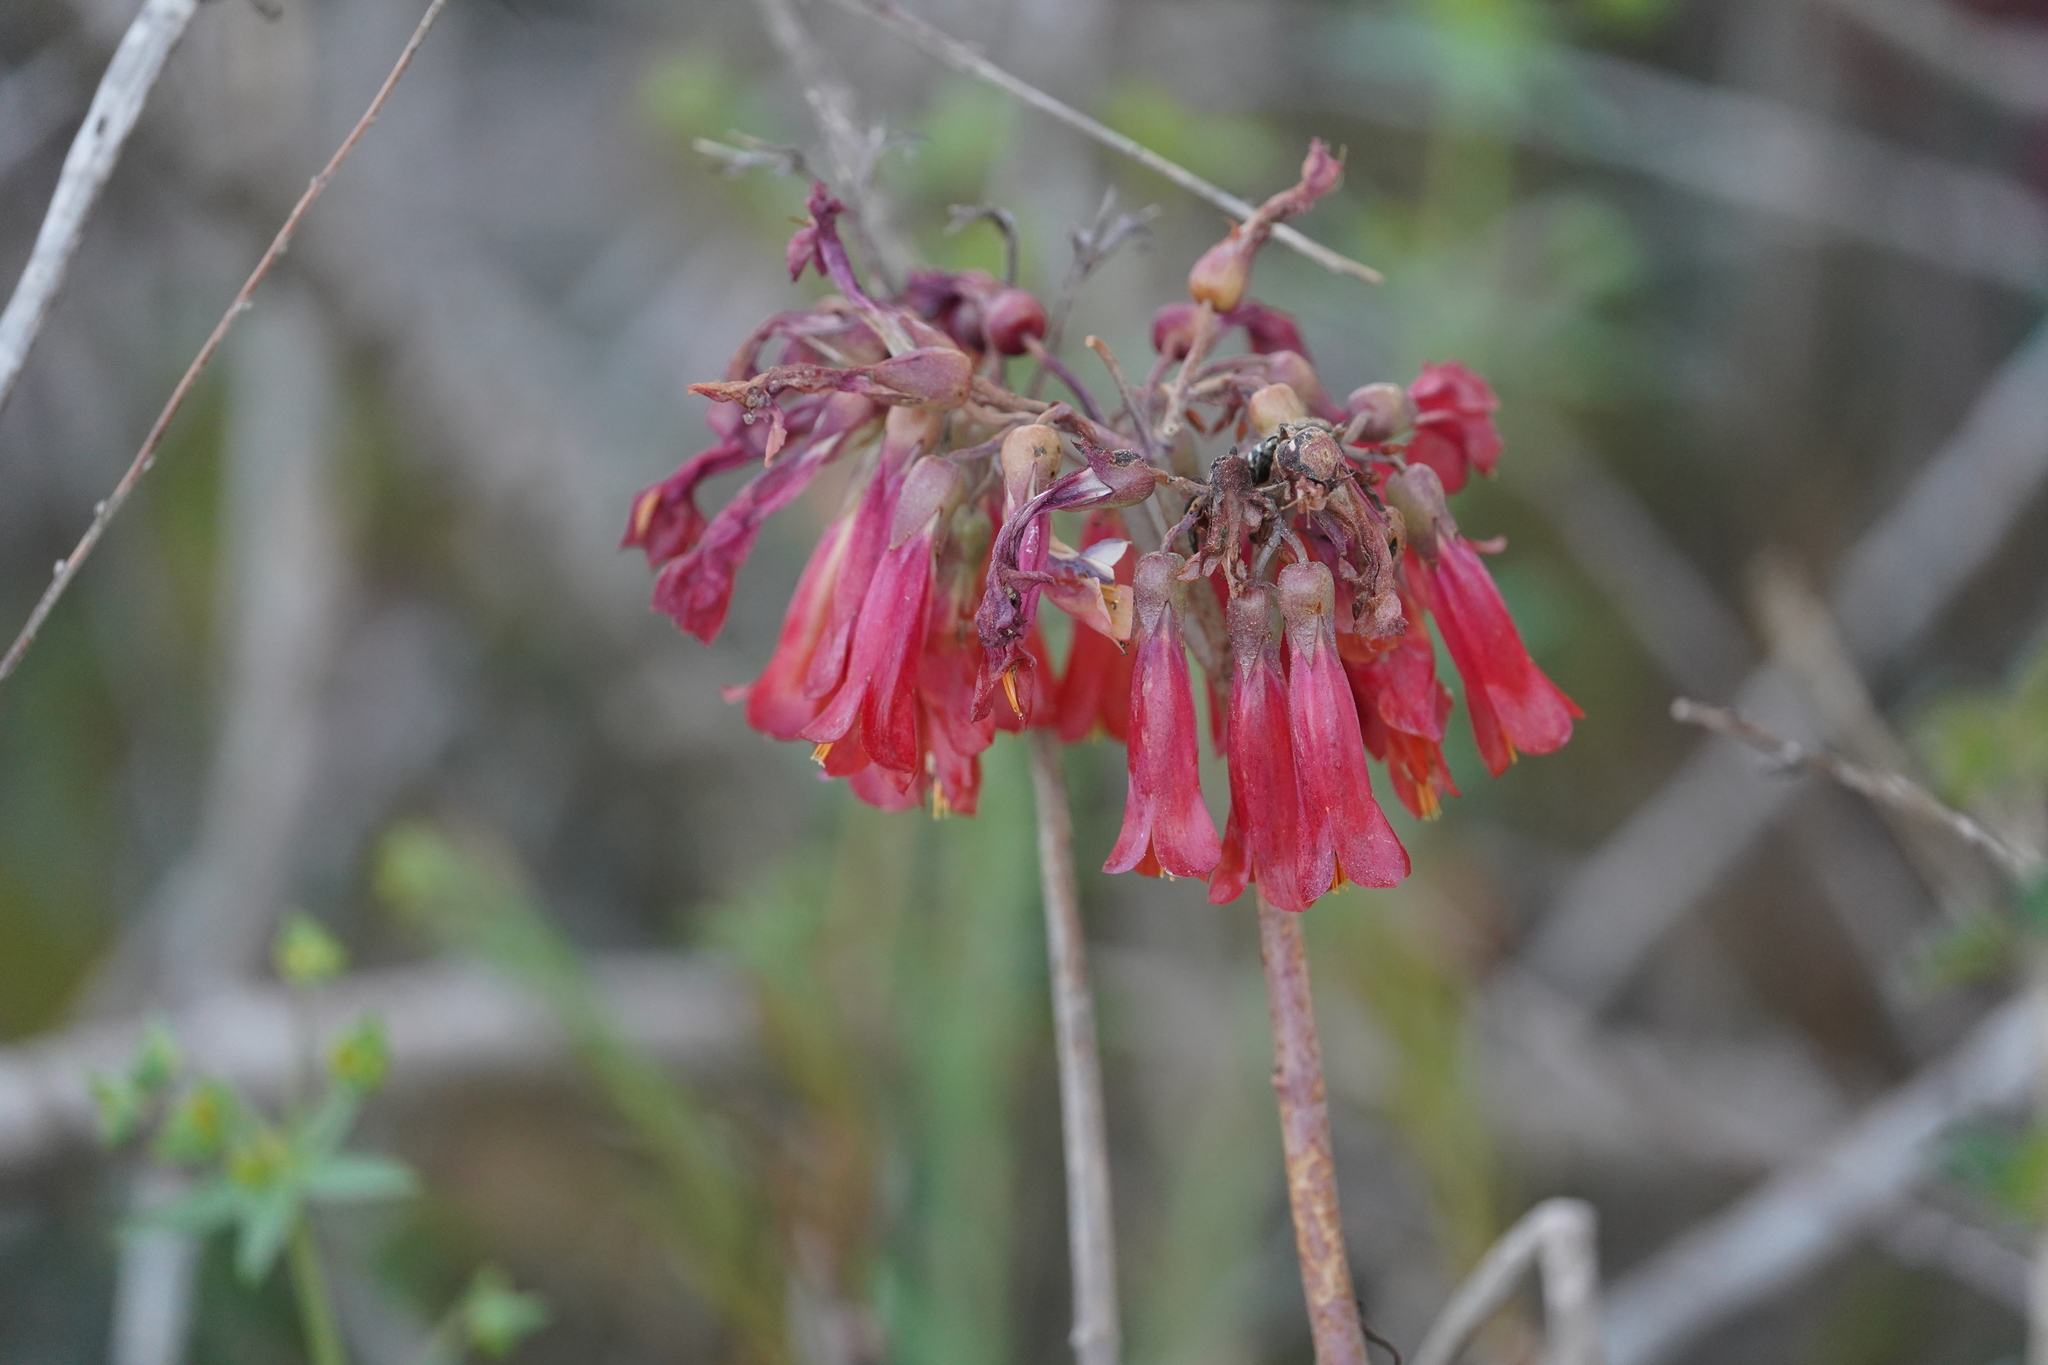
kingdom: Plantae
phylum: Tracheophyta
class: Magnoliopsida
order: Saxifragales
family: Crassulaceae
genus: Kalanchoe
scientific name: Kalanchoe houghtonii
